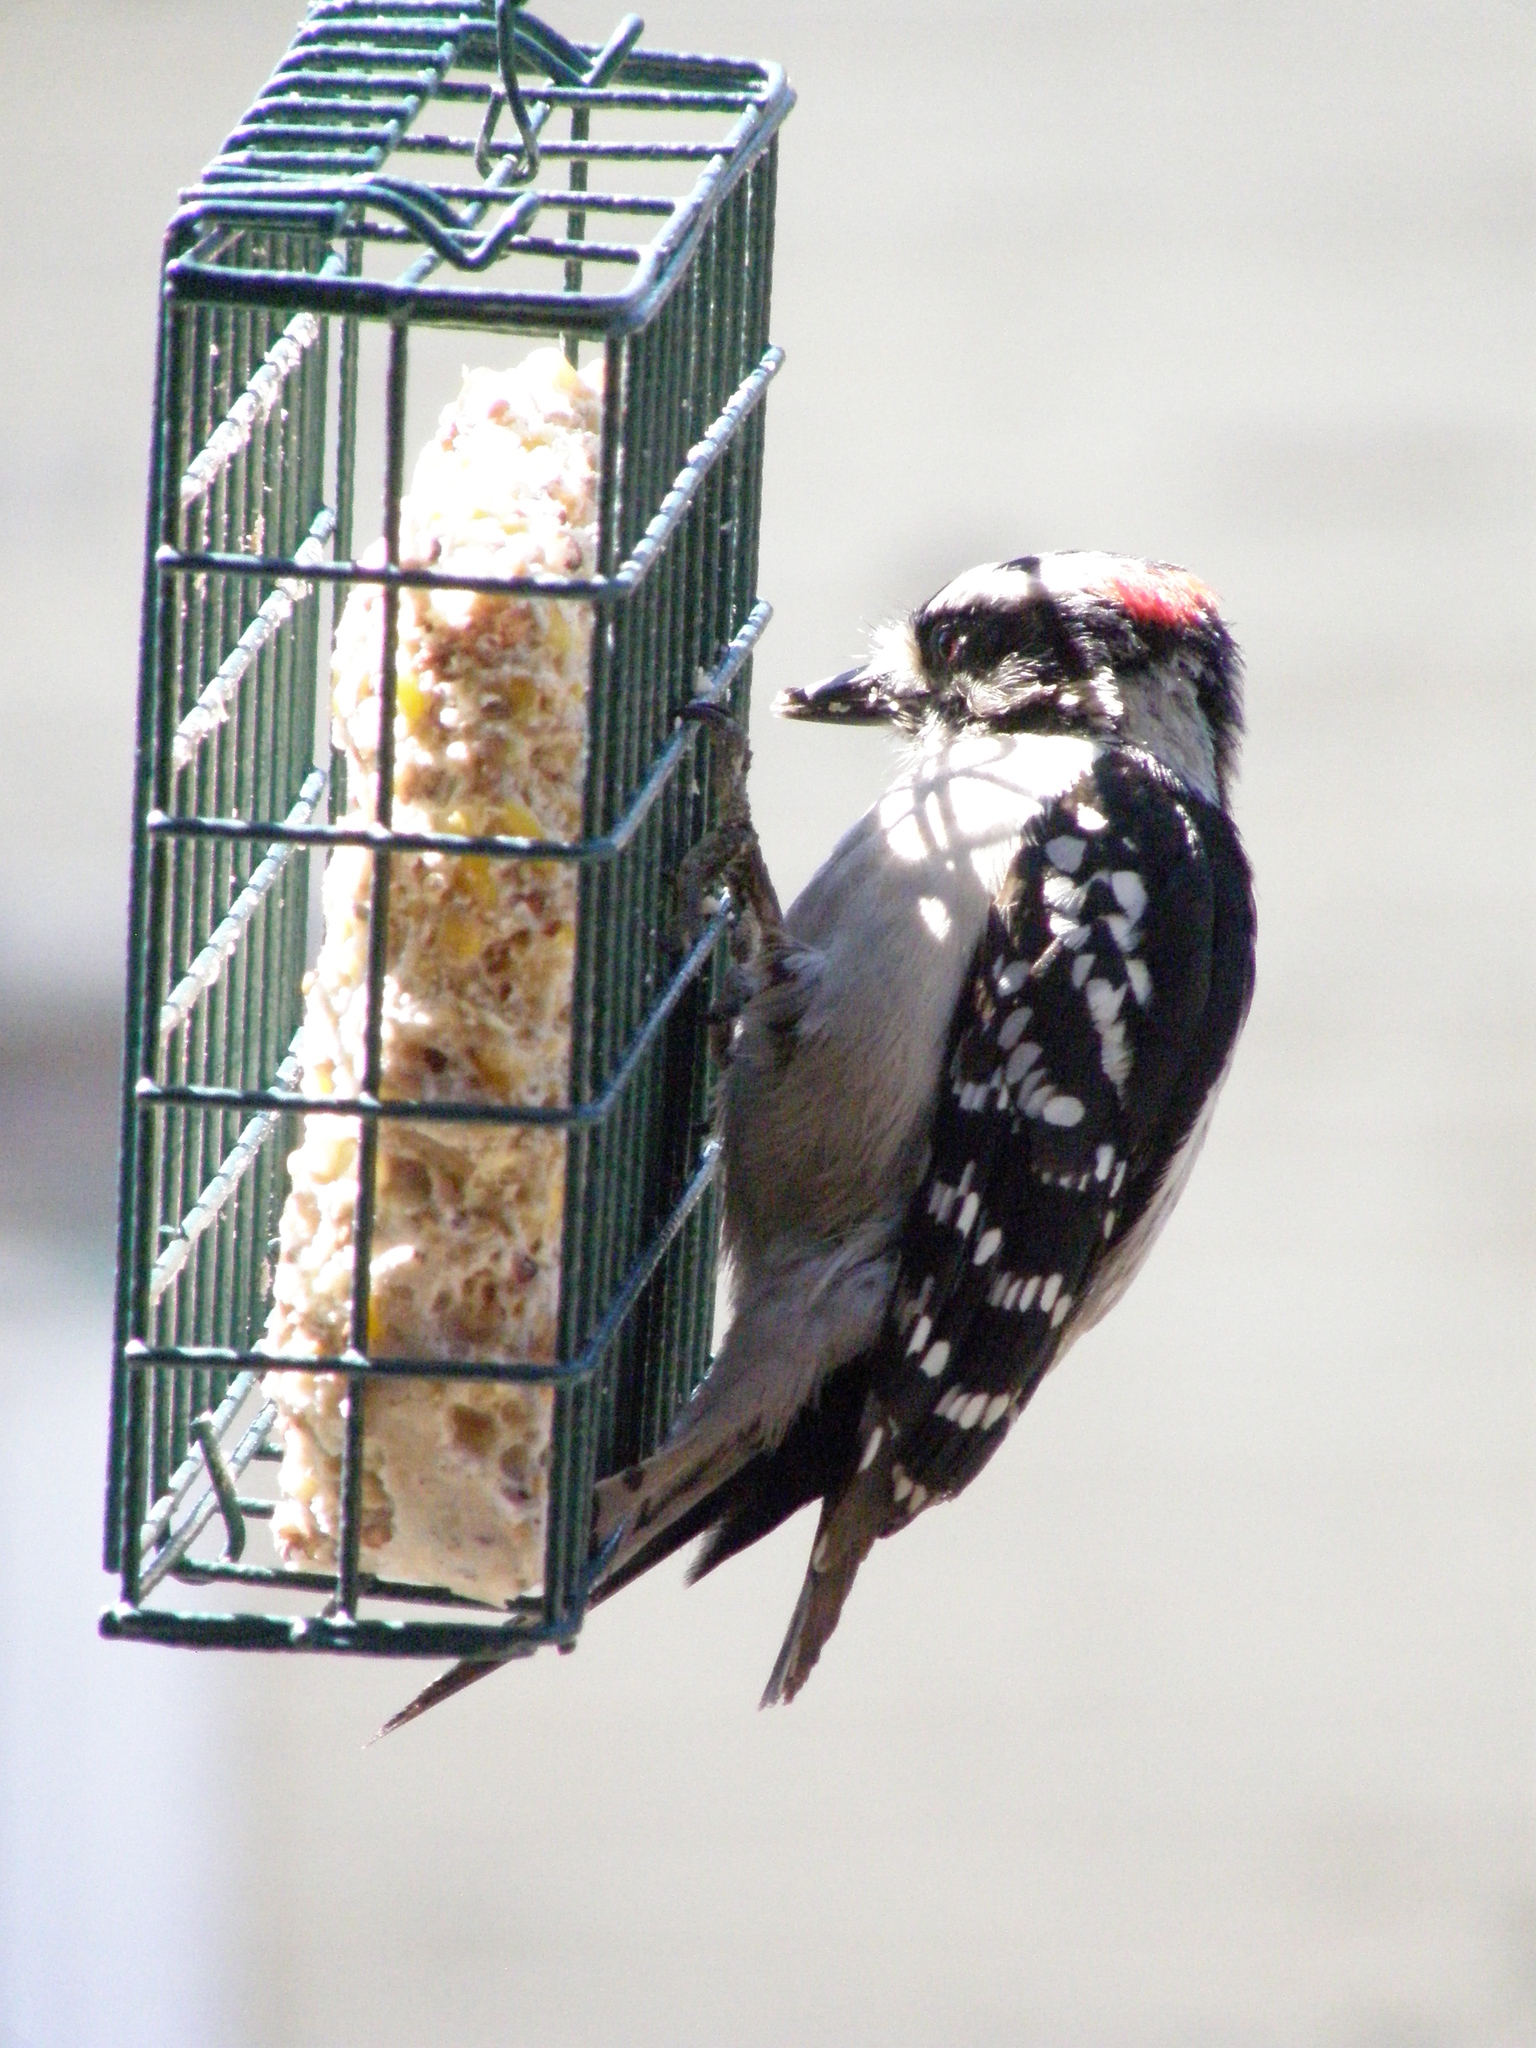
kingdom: Animalia
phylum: Chordata
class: Aves
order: Piciformes
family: Picidae
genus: Dryobates
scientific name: Dryobates pubescens
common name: Downy woodpecker
